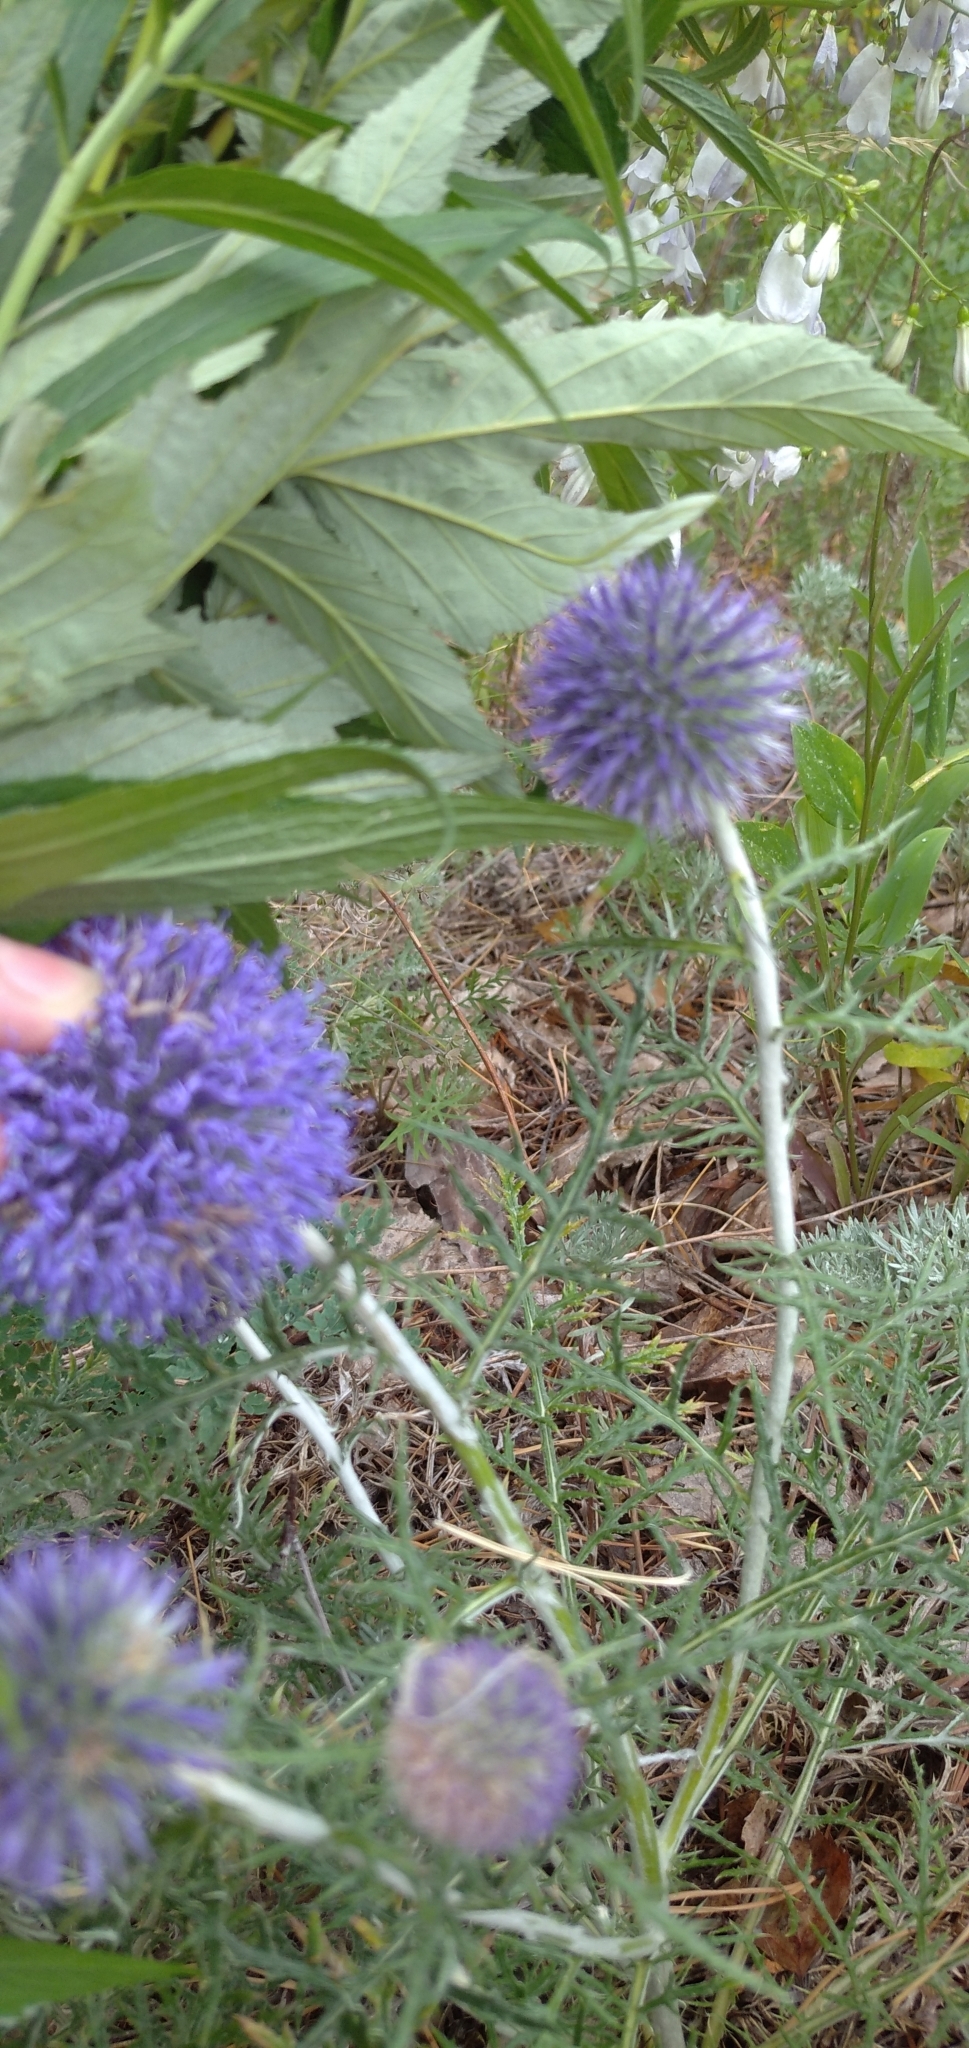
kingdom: Plantae
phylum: Tracheophyta
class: Magnoliopsida
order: Asterales
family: Asteraceae
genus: Echinops
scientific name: Echinops ritro
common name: Globe thistle
